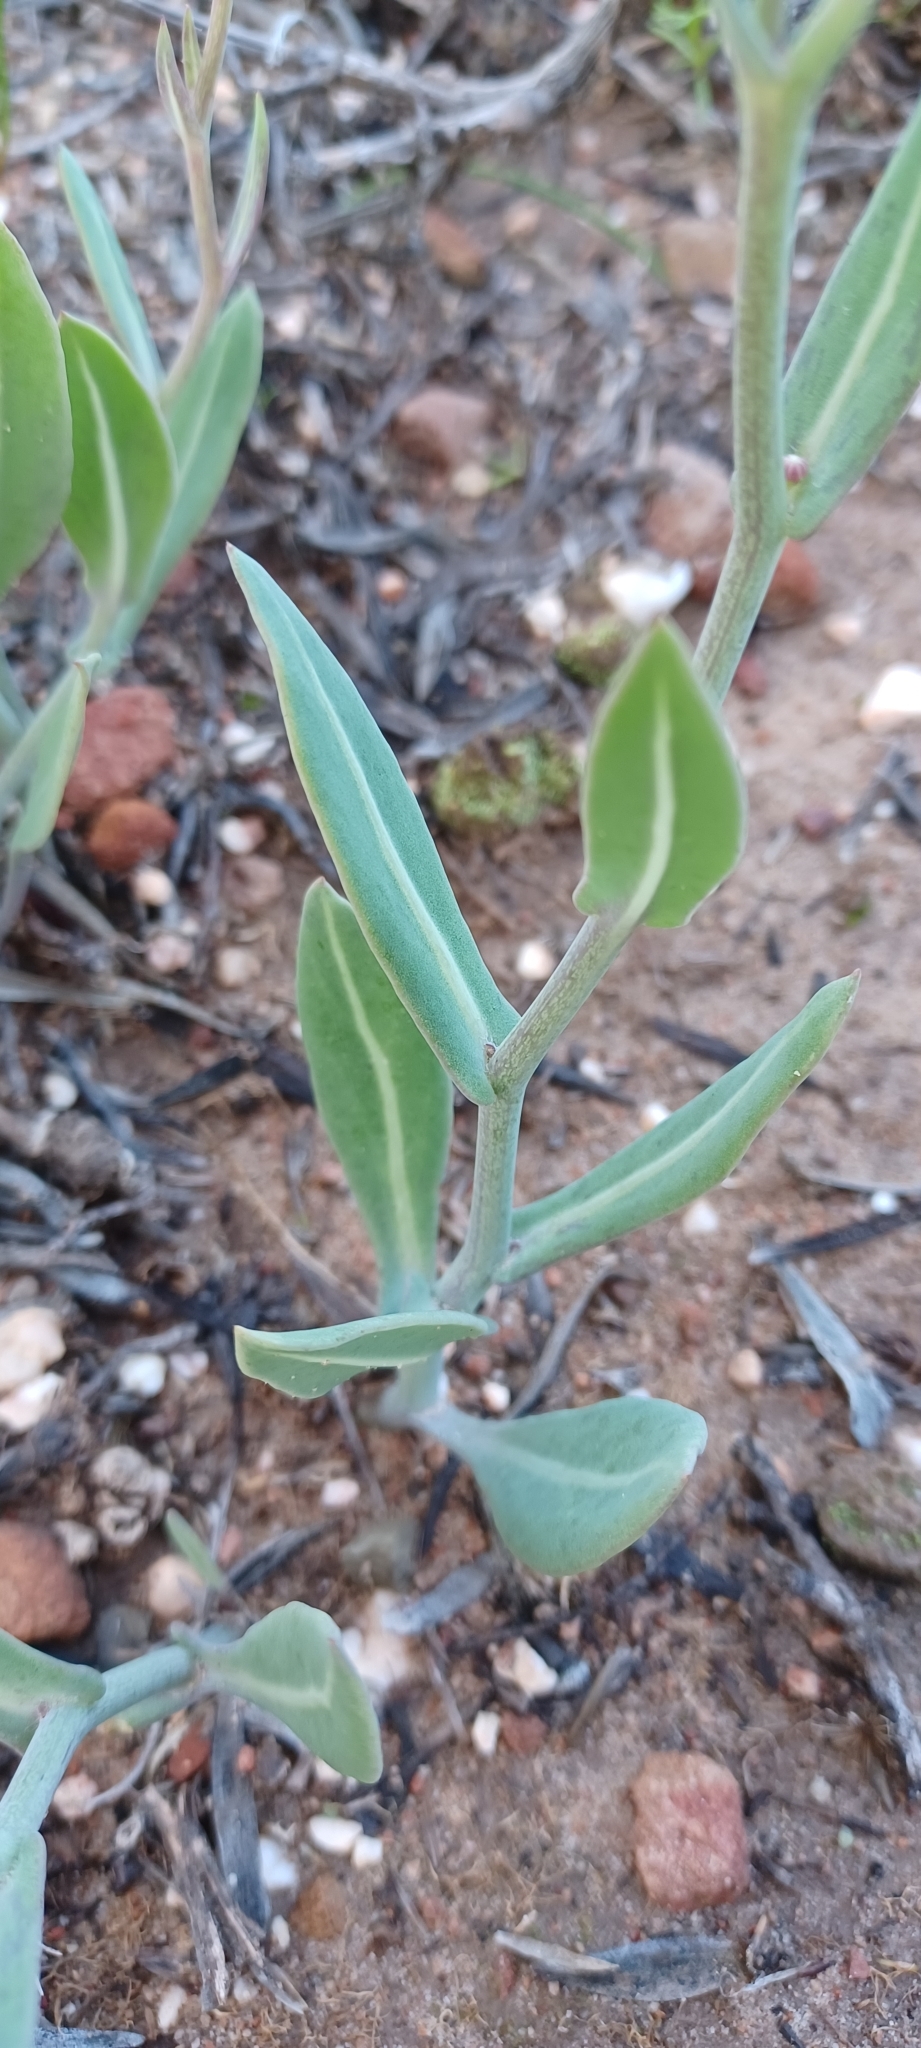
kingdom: Plantae
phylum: Tracheophyta
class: Magnoliopsida
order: Asterales
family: Asteraceae
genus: Othonna
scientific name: Othonna gymnodiscus
